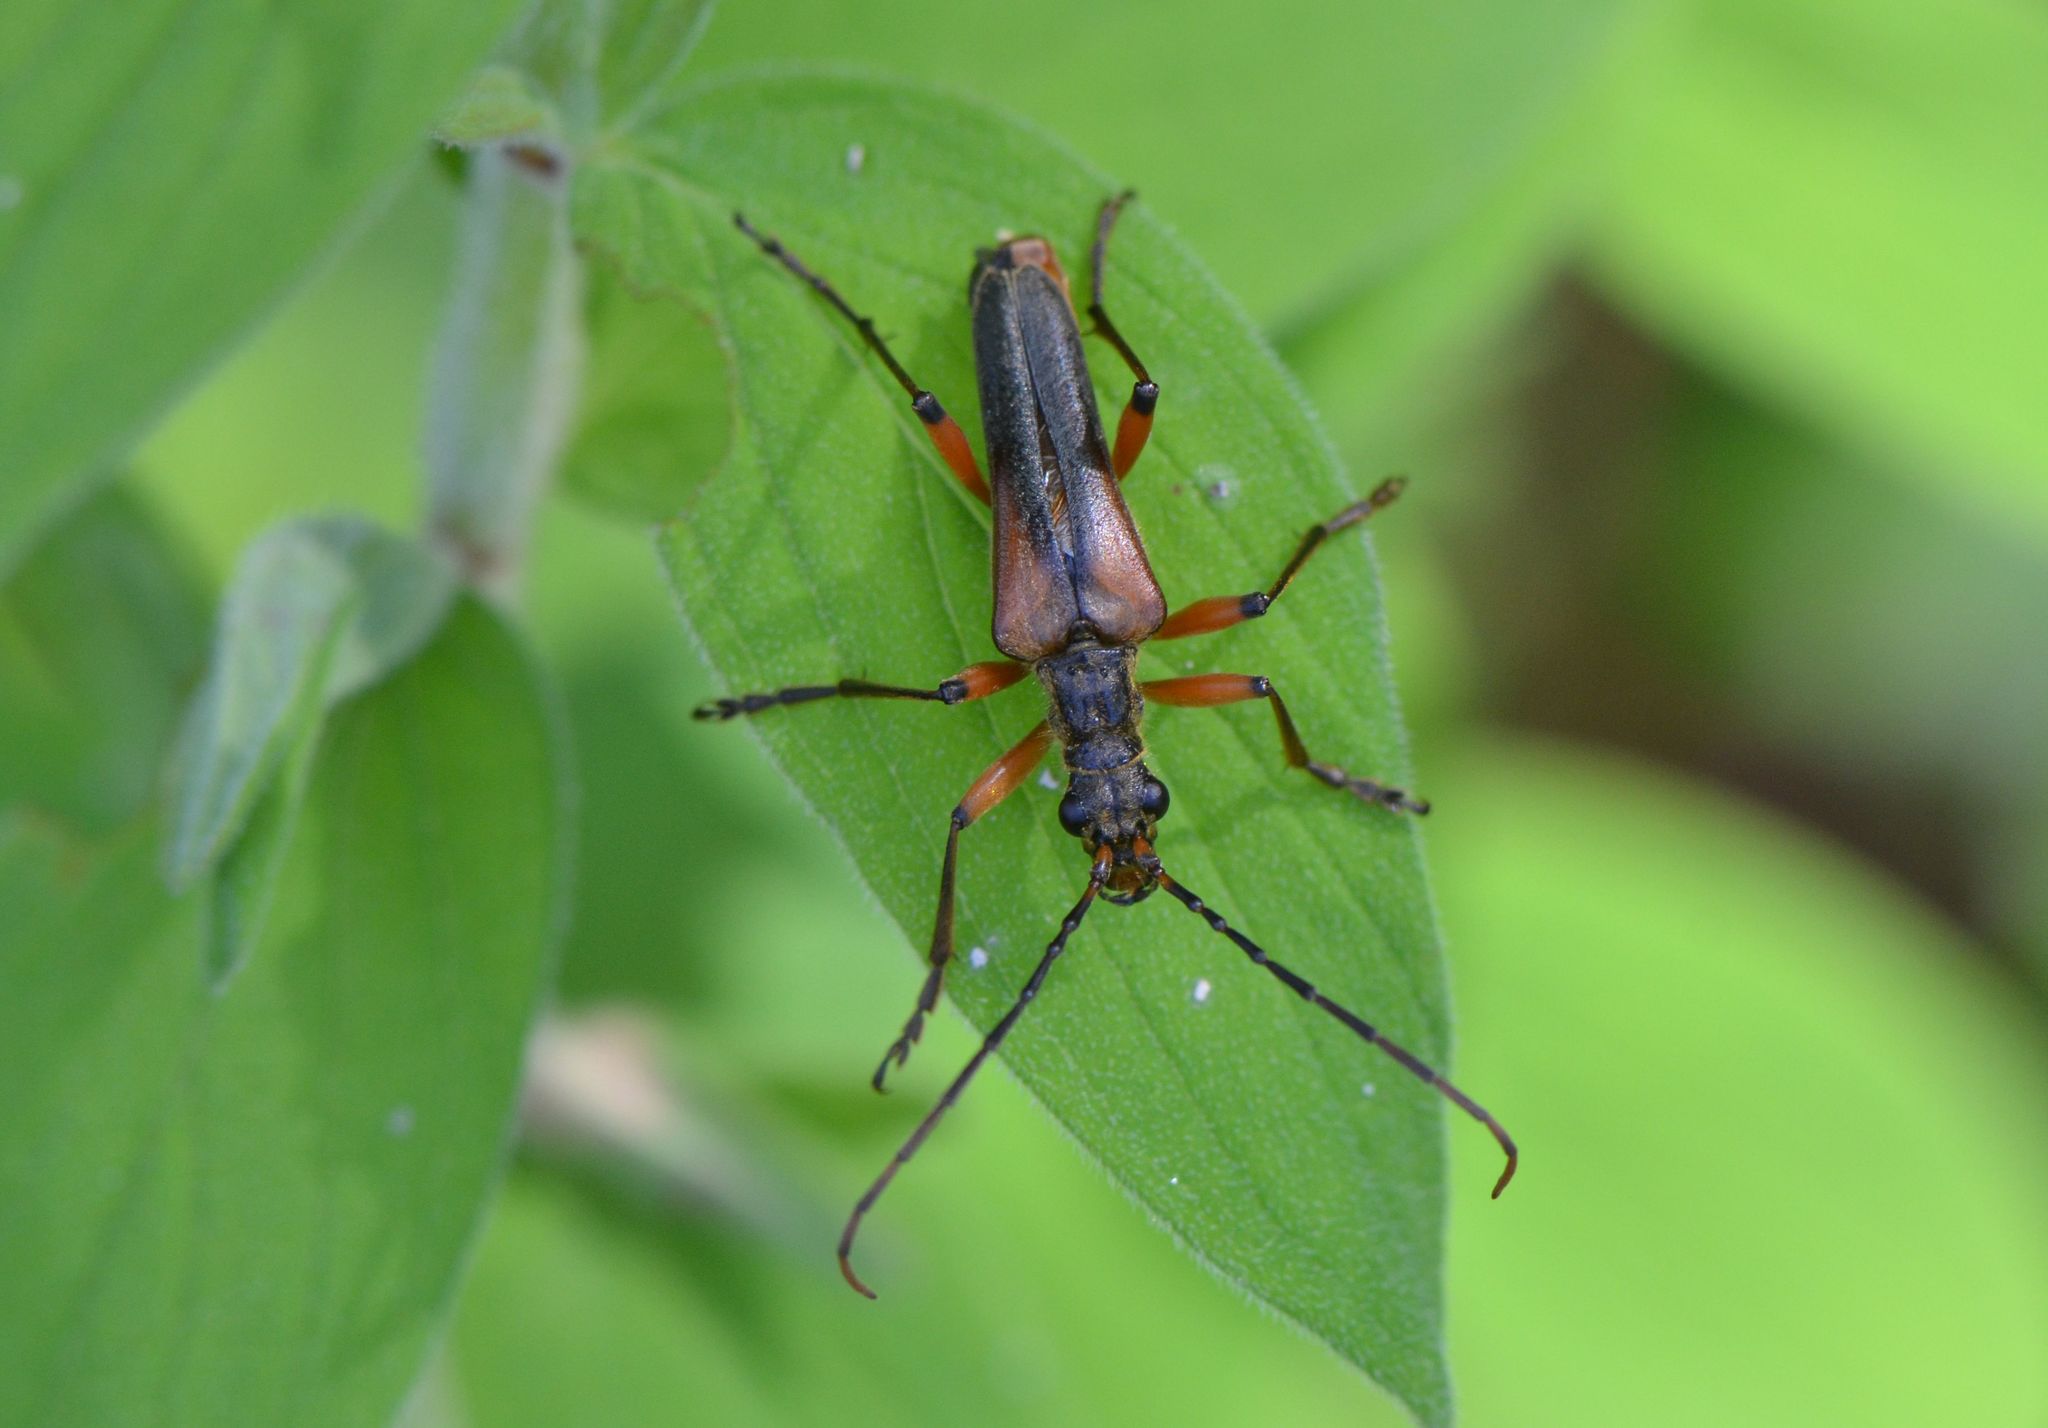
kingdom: Animalia
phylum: Arthropoda
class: Insecta
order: Coleoptera
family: Cerambycidae
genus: Stenocorus
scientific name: Stenocorus meridianus
